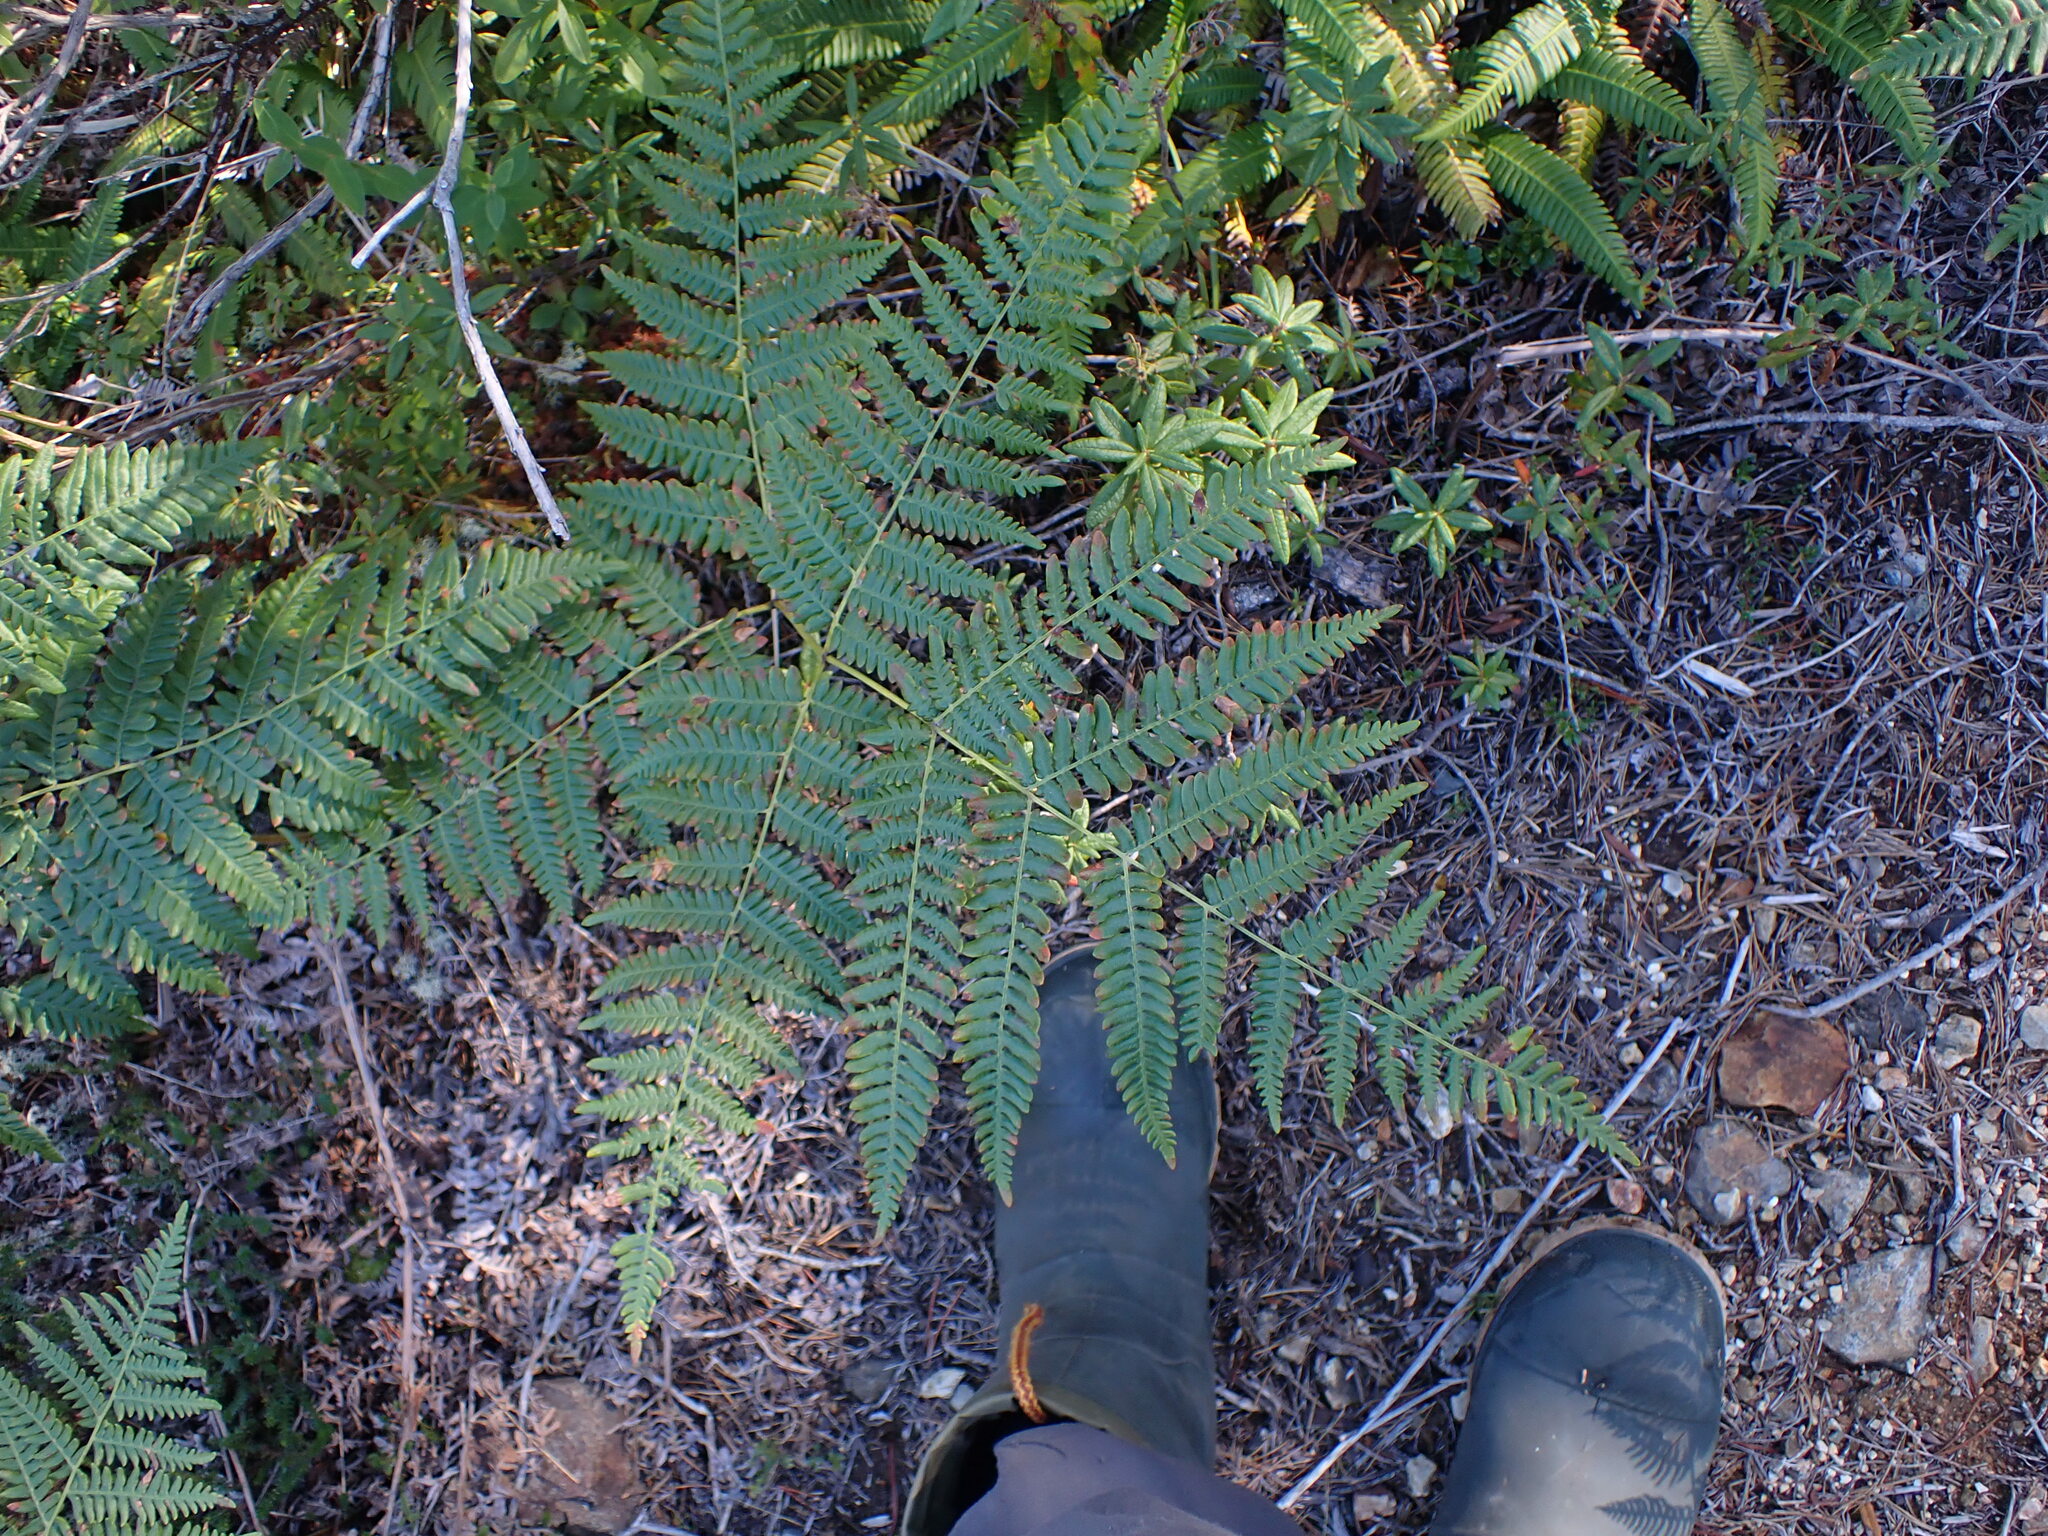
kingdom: Plantae
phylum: Tracheophyta
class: Polypodiopsida
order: Polypodiales
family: Dennstaedtiaceae
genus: Pteridium
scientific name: Pteridium aquilinum
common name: Bracken
